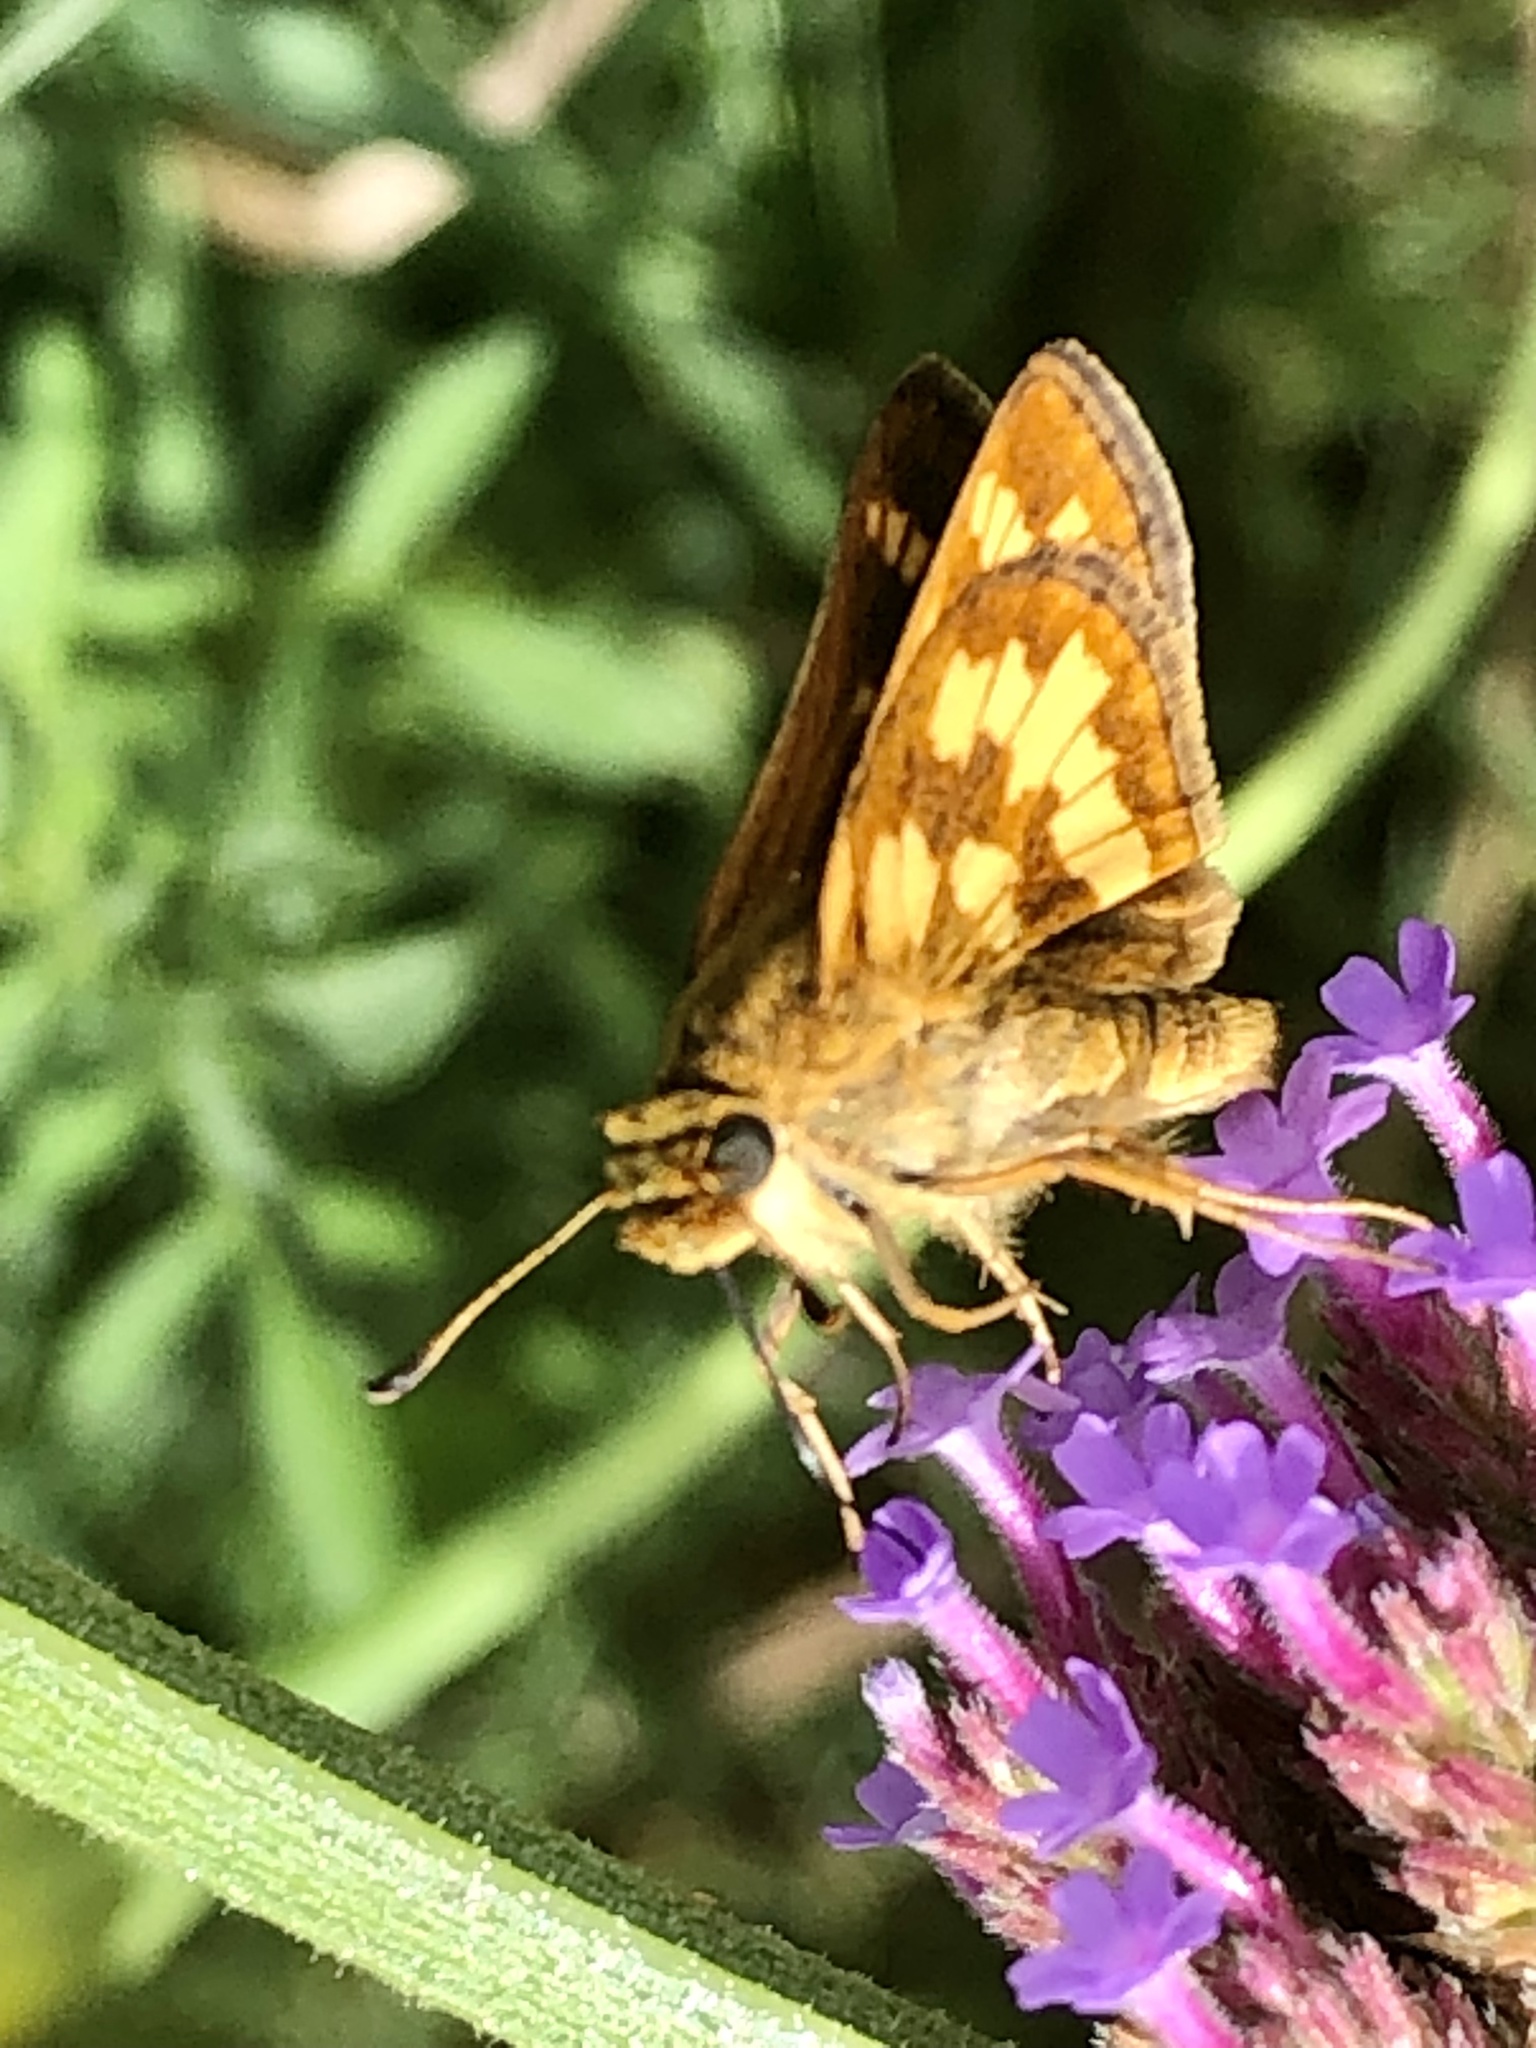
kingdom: Animalia
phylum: Arthropoda
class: Insecta
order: Lepidoptera
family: Hesperiidae
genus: Polites
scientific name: Polites coras
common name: Peck's skipper
